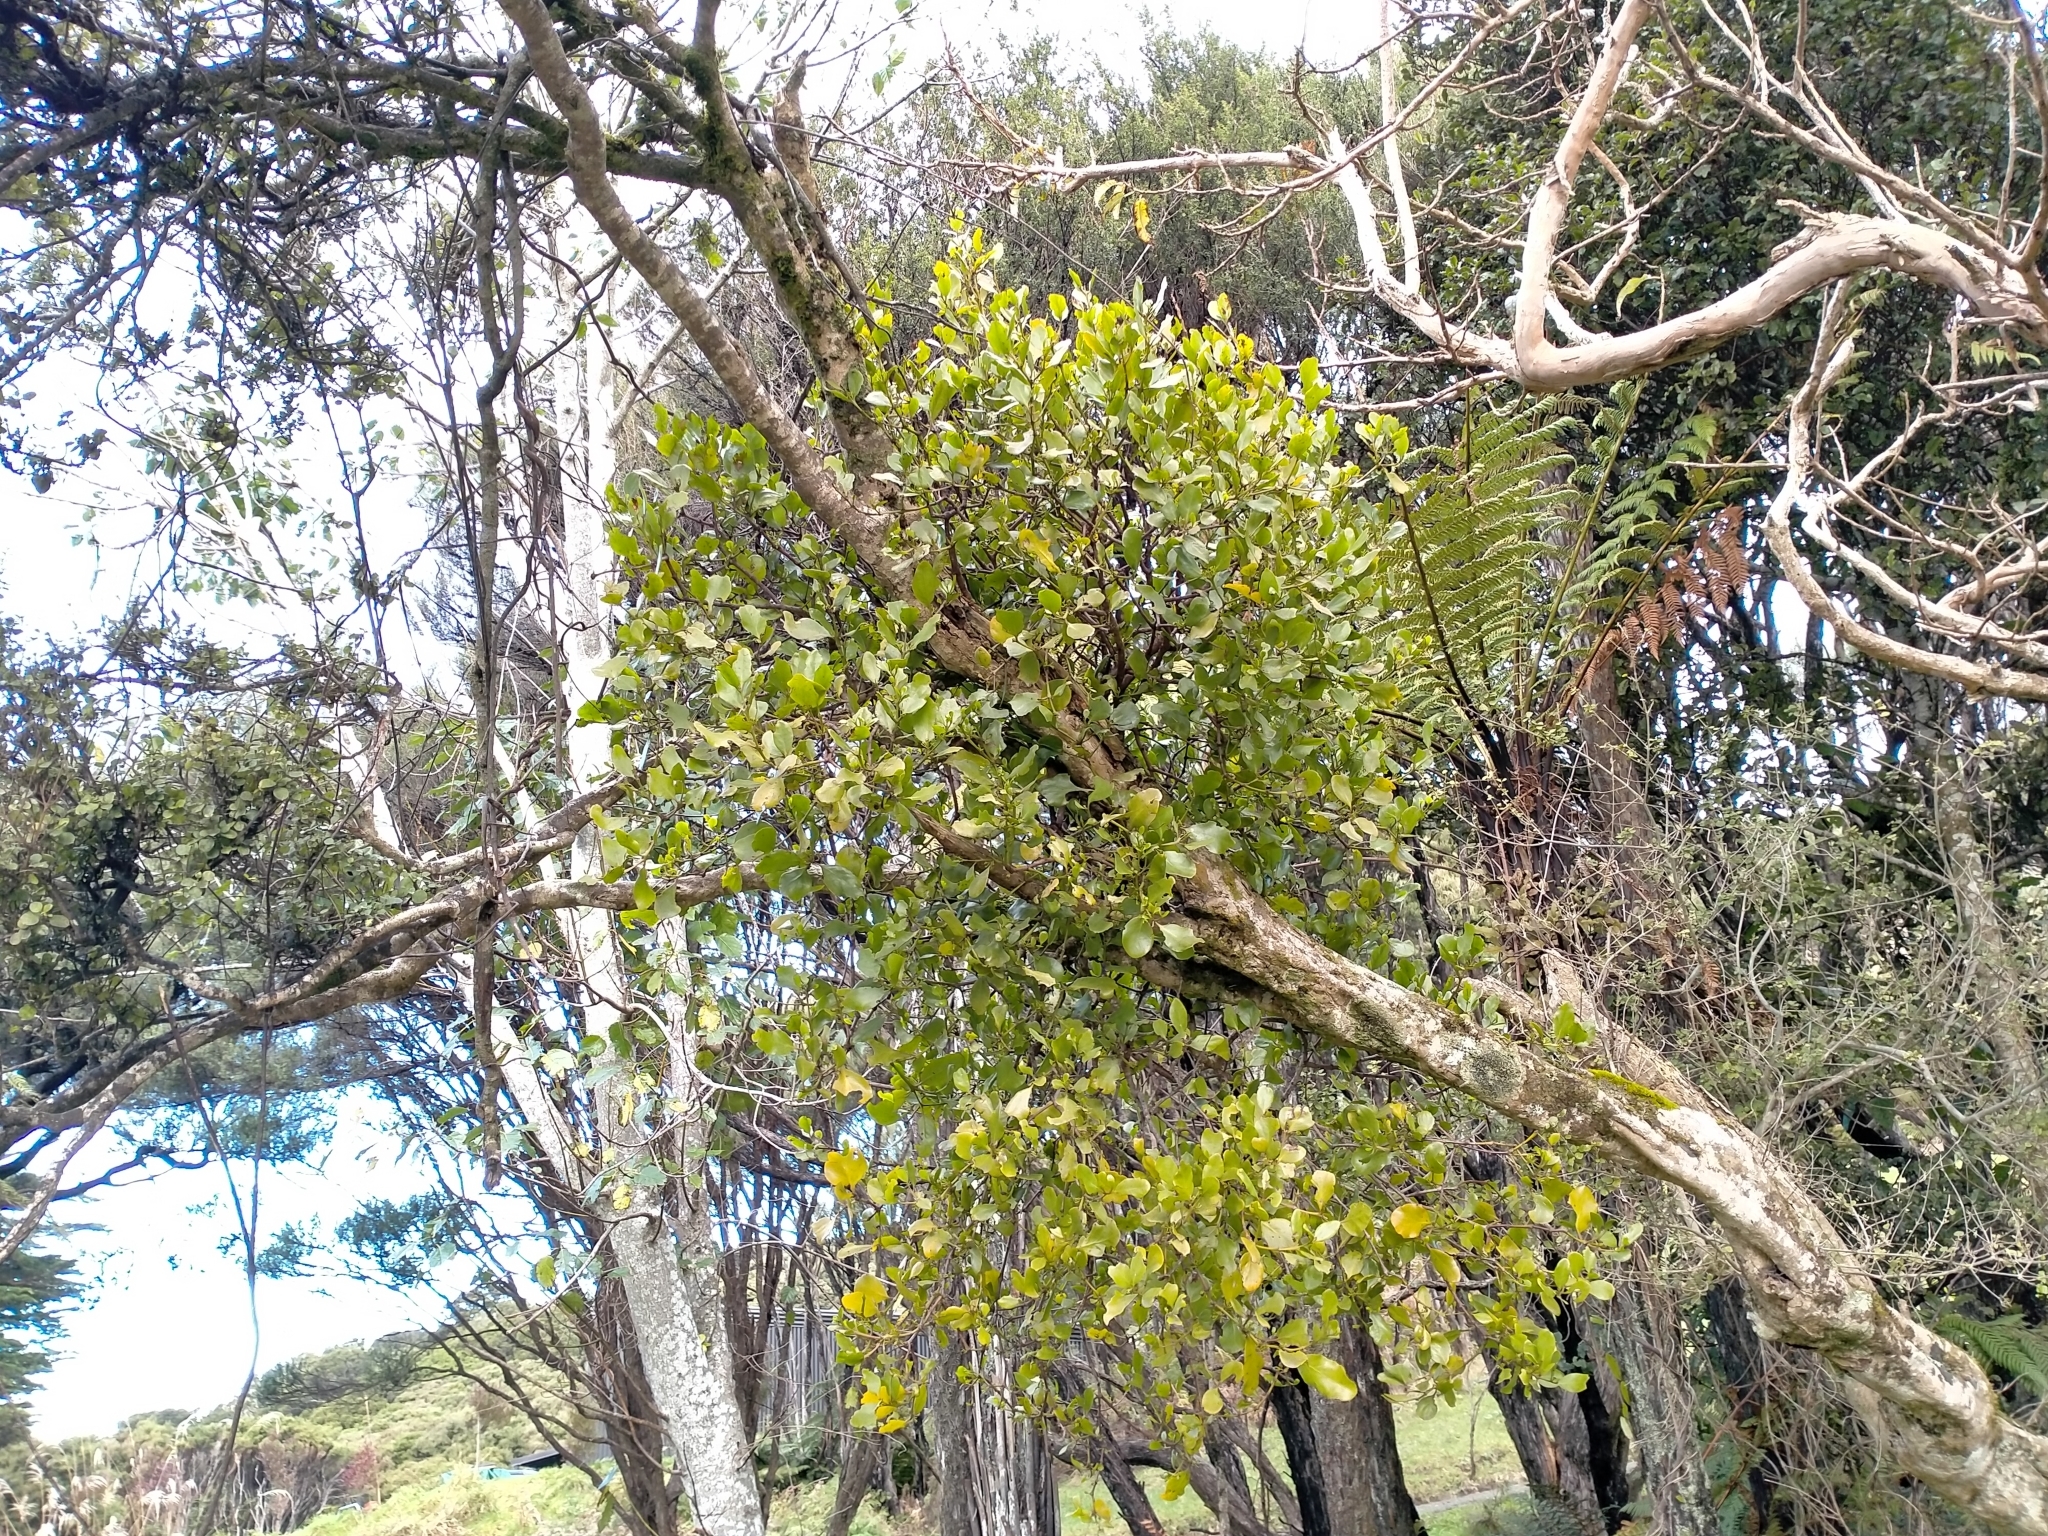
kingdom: Plantae
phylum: Tracheophyta
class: Magnoliopsida
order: Santalales
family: Loranthaceae
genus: Ileostylus
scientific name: Ileostylus micranthus
